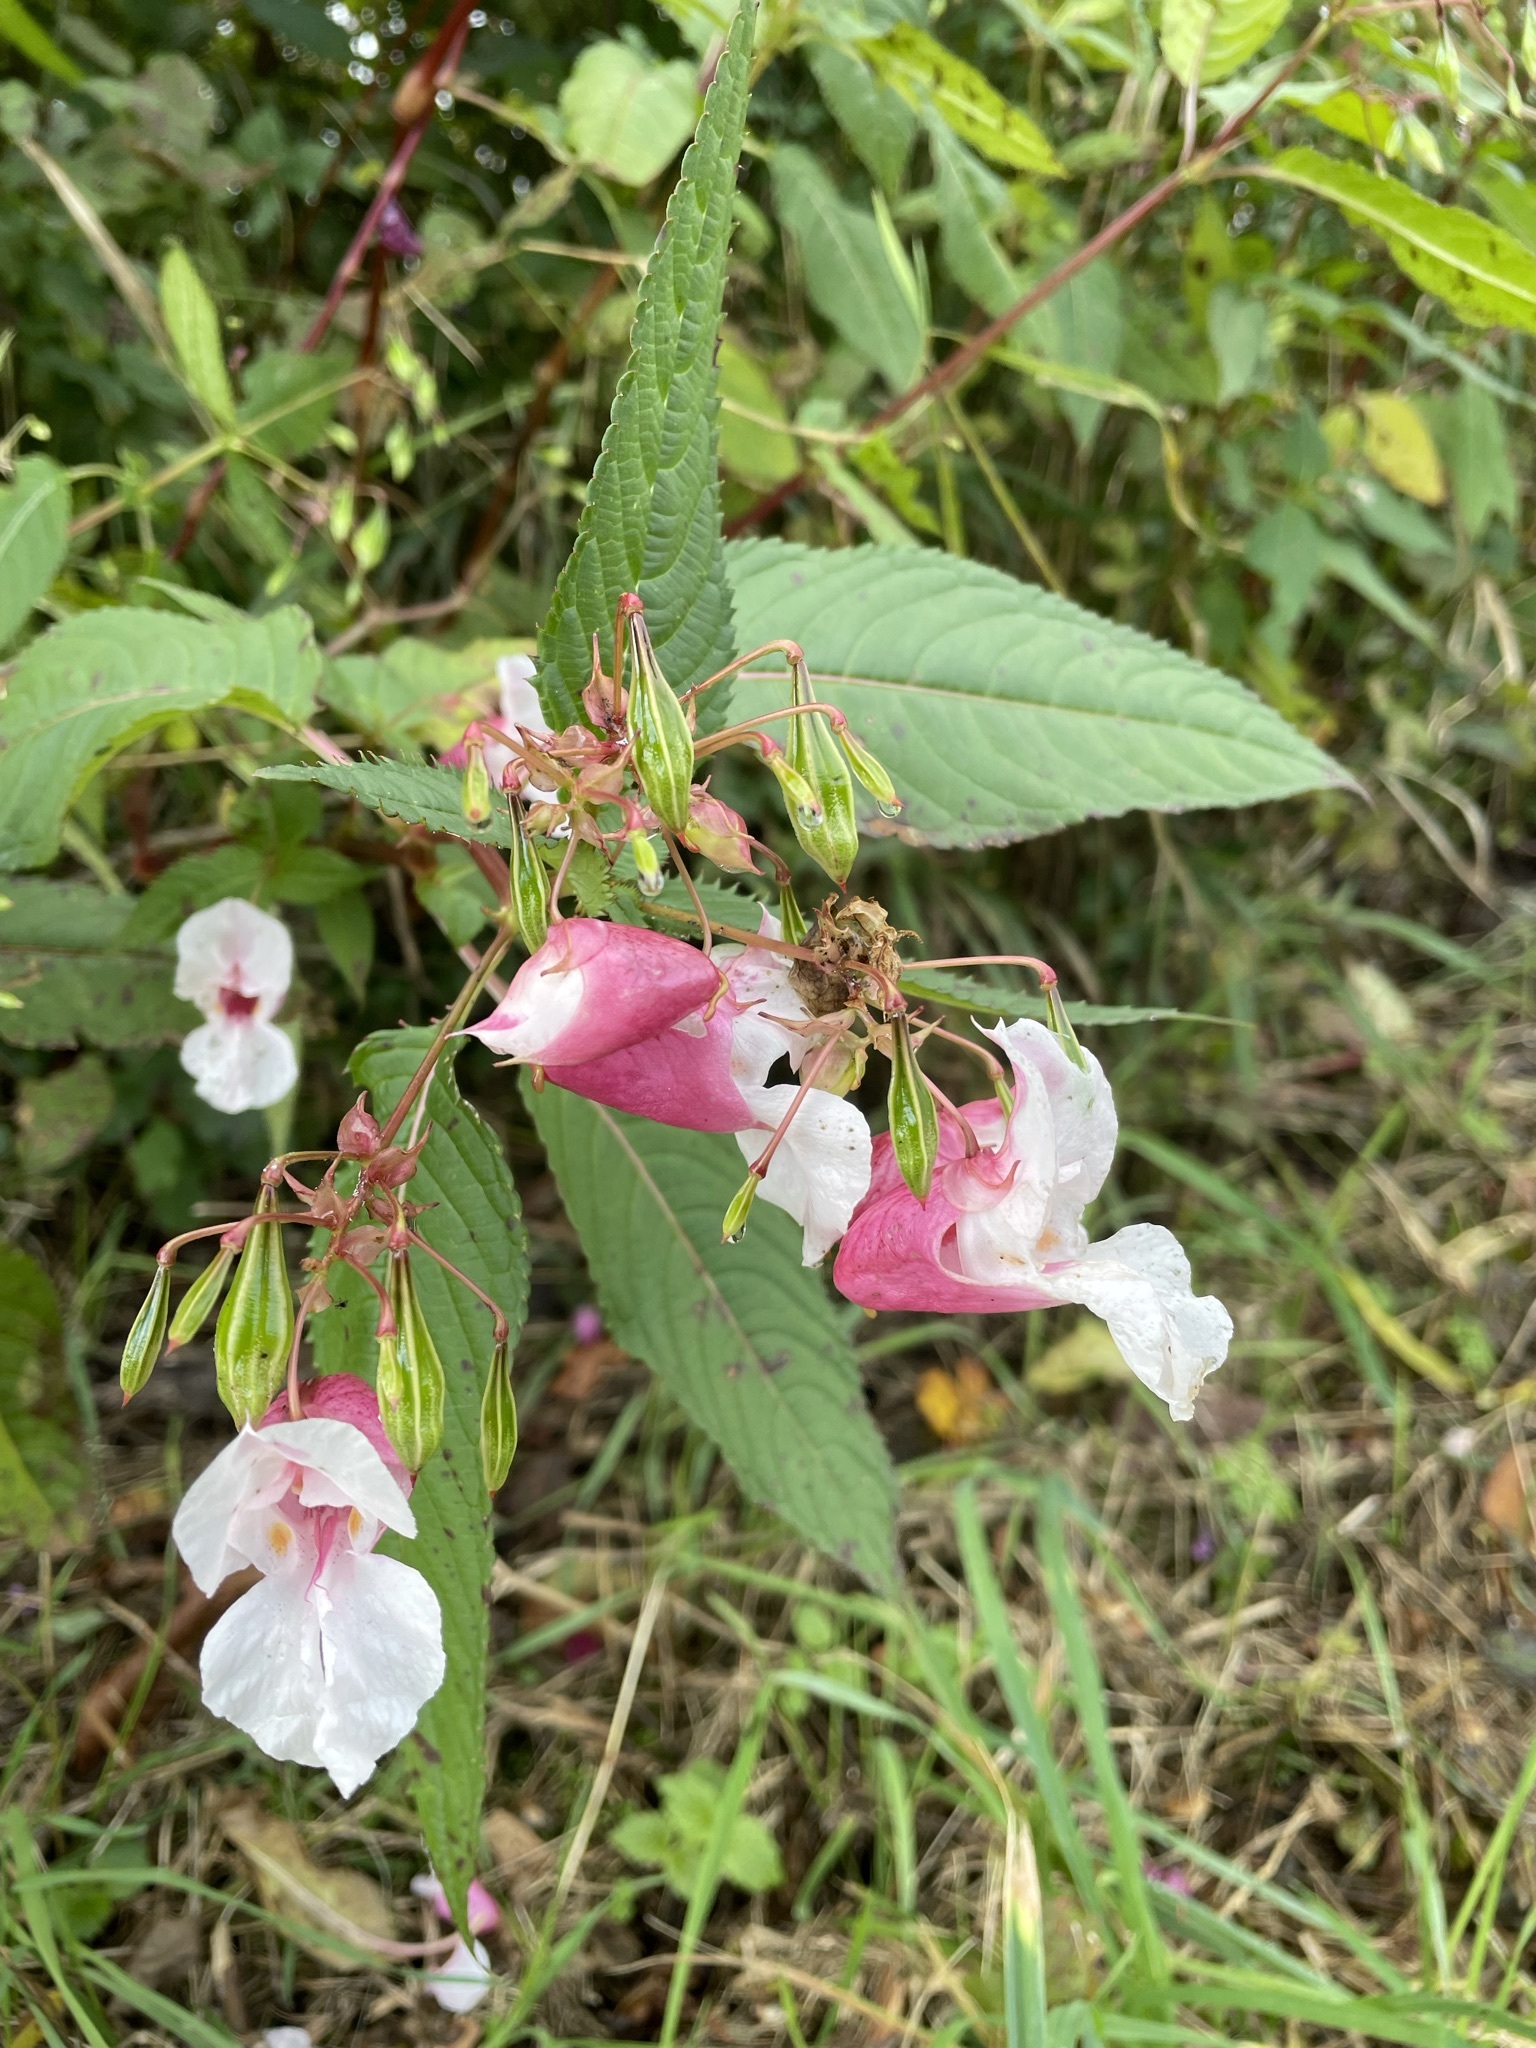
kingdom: Plantae
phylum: Tracheophyta
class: Magnoliopsida
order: Ericales
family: Balsaminaceae
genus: Impatiens
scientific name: Impatiens glandulifera
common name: Himalayan balsam
